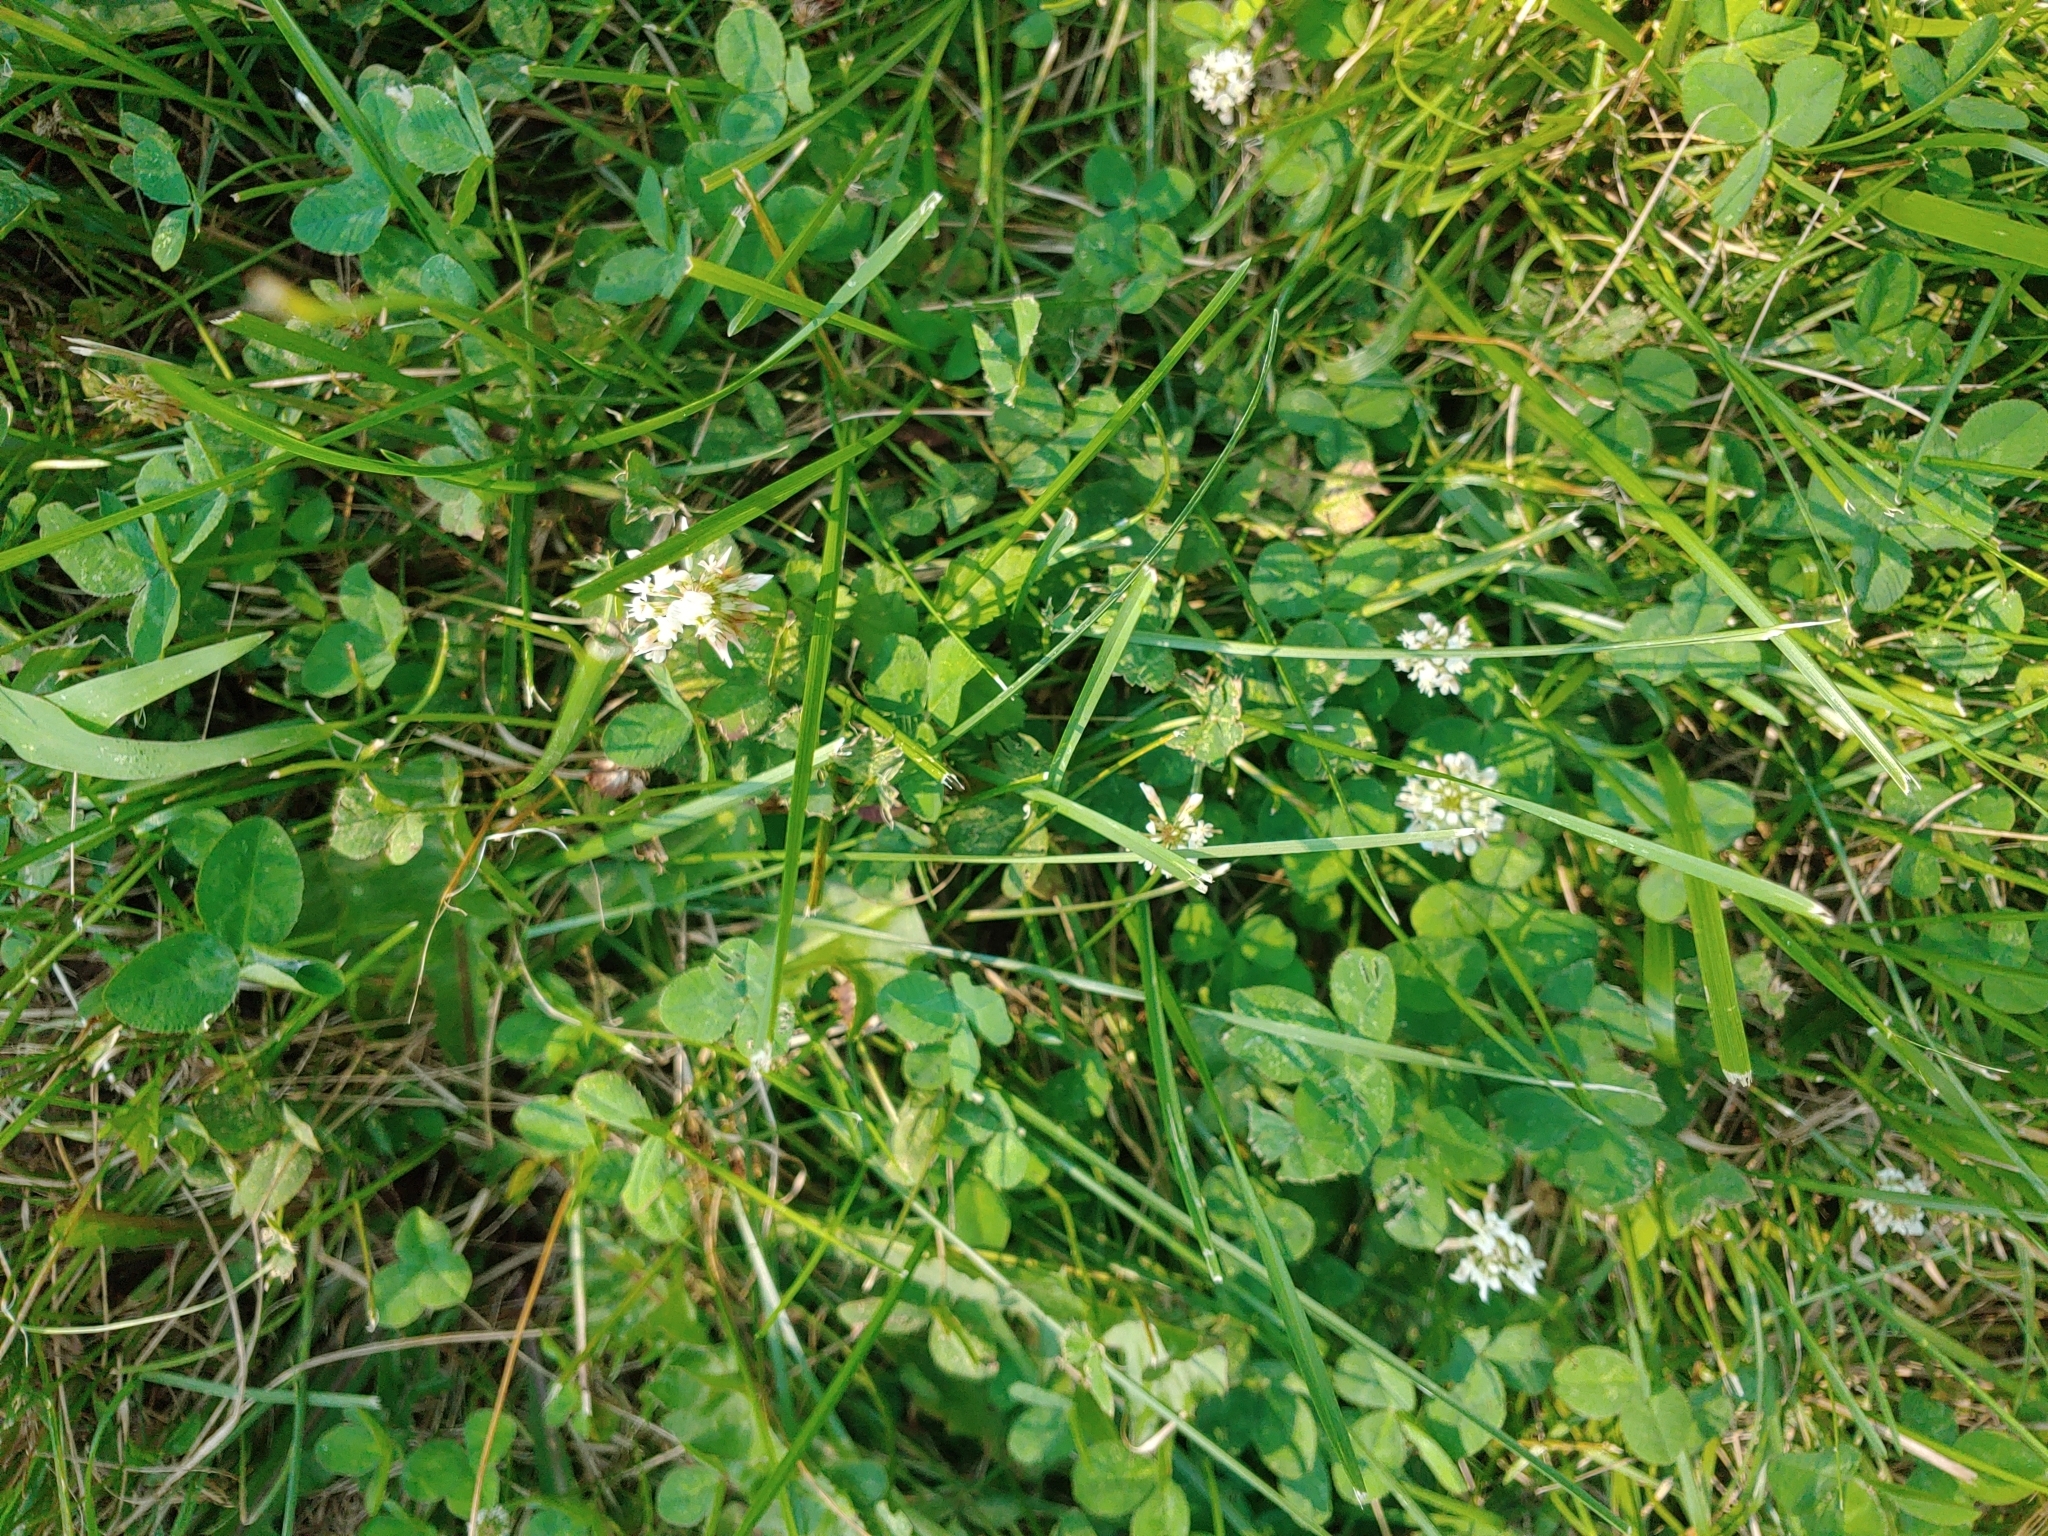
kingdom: Plantae
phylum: Tracheophyta
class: Magnoliopsida
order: Fabales
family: Fabaceae
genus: Trifolium
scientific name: Trifolium repens
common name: White clover
